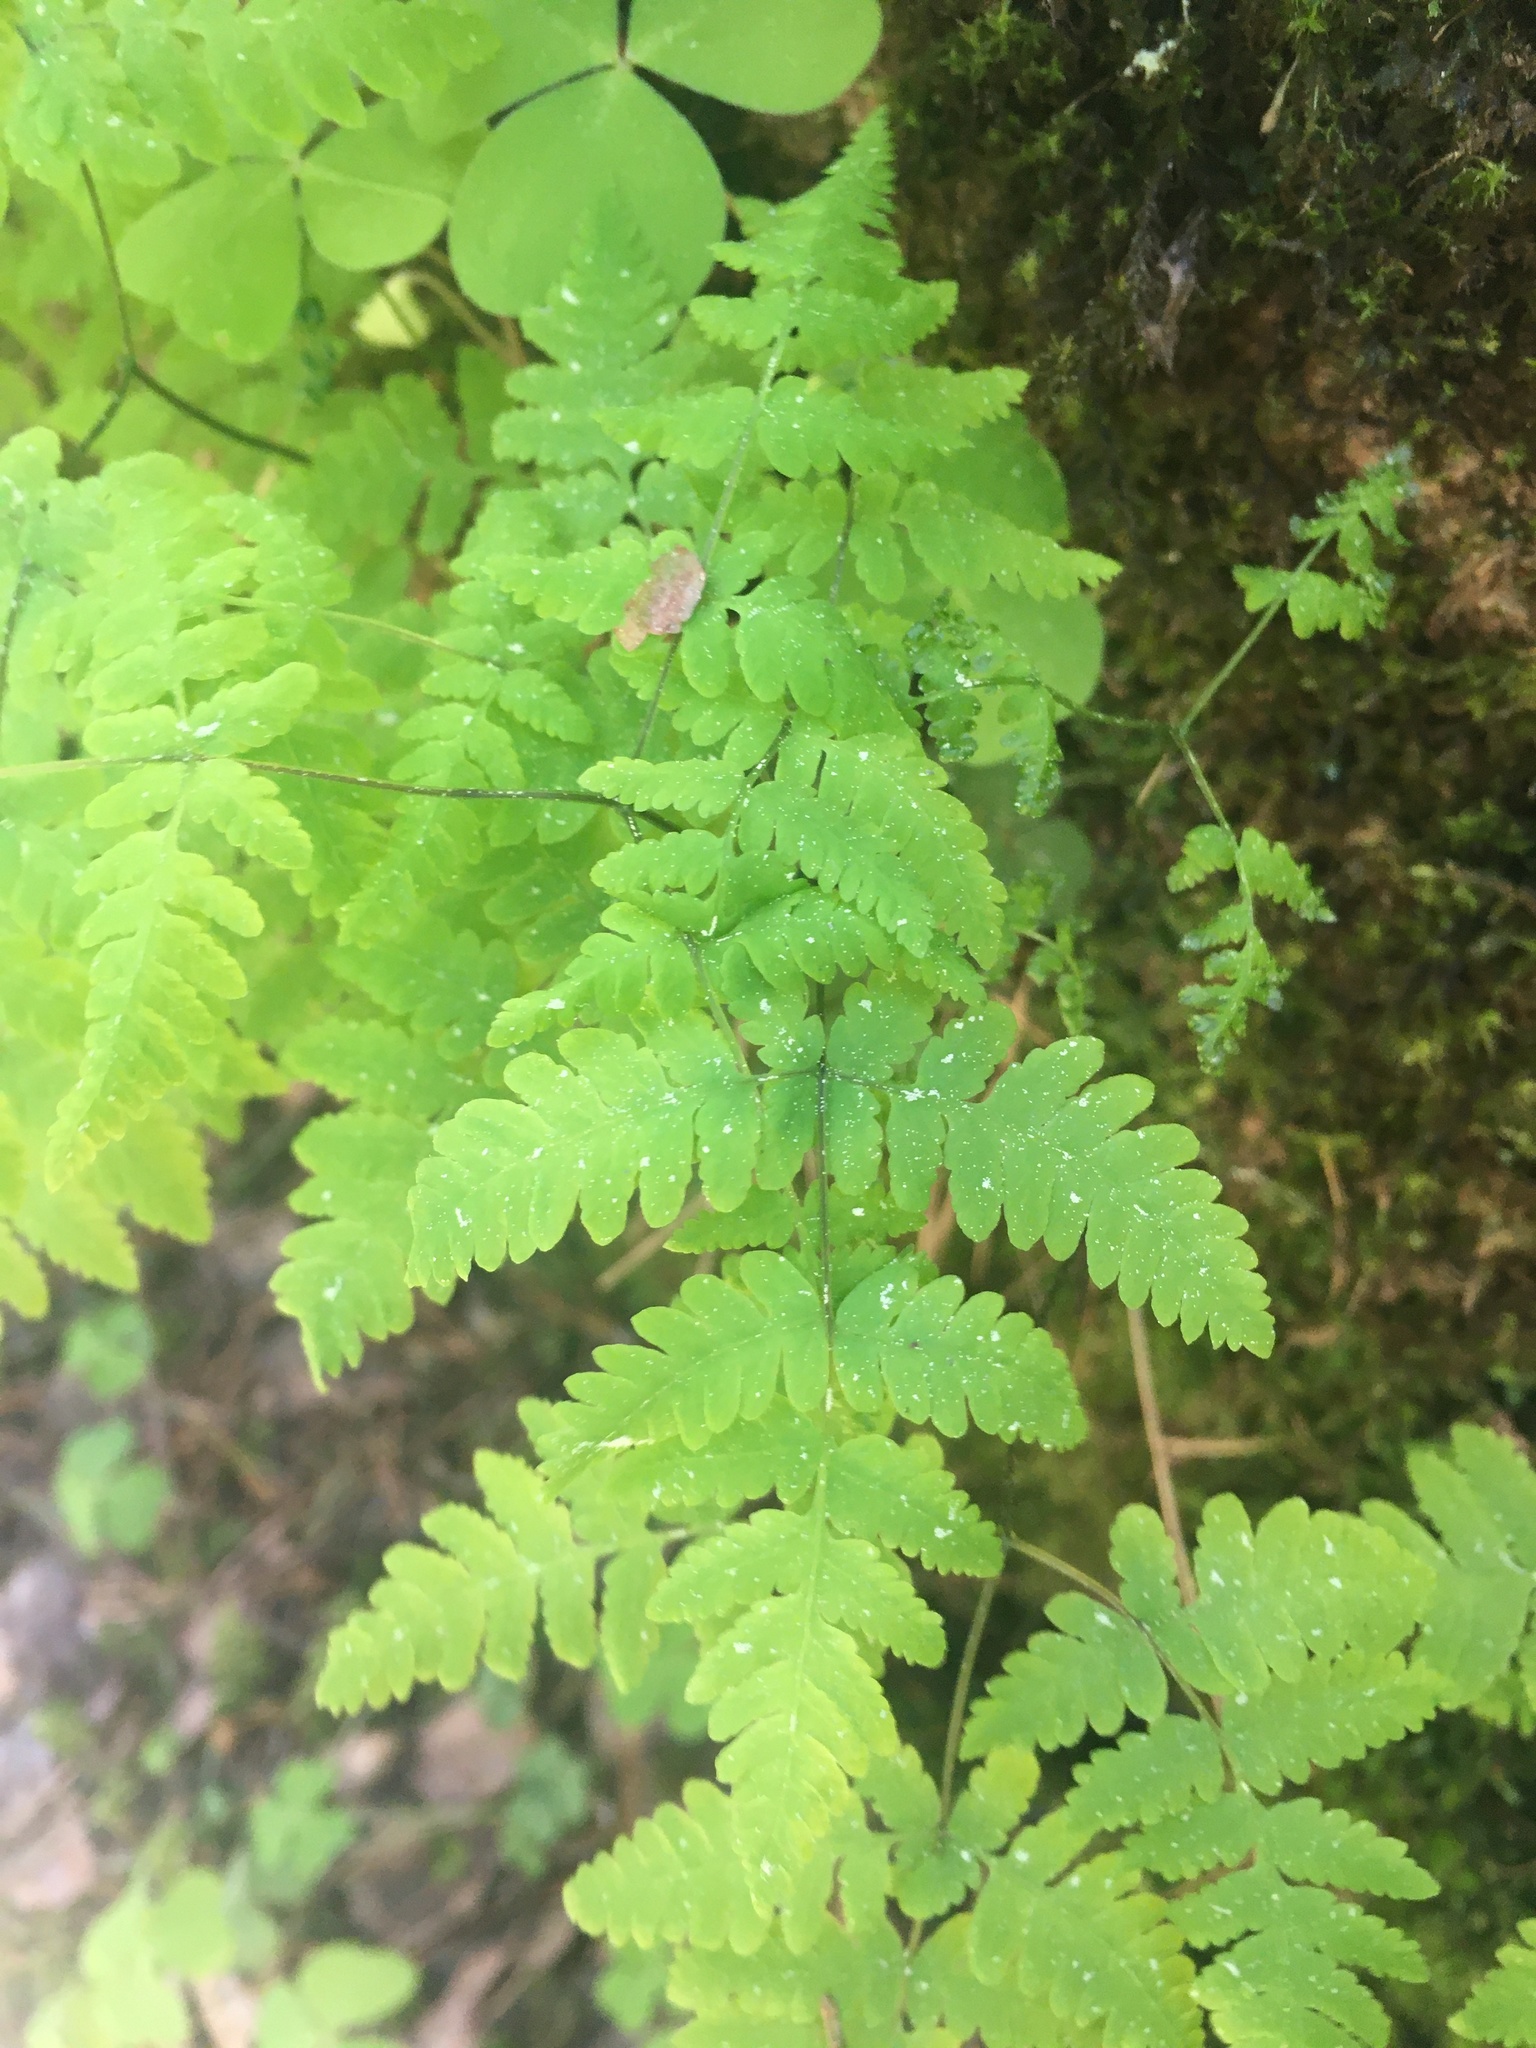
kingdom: Plantae
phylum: Tracheophyta
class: Polypodiopsida
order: Polypodiales
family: Cystopteridaceae
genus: Gymnocarpium
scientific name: Gymnocarpium dryopteris
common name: Oak fern
